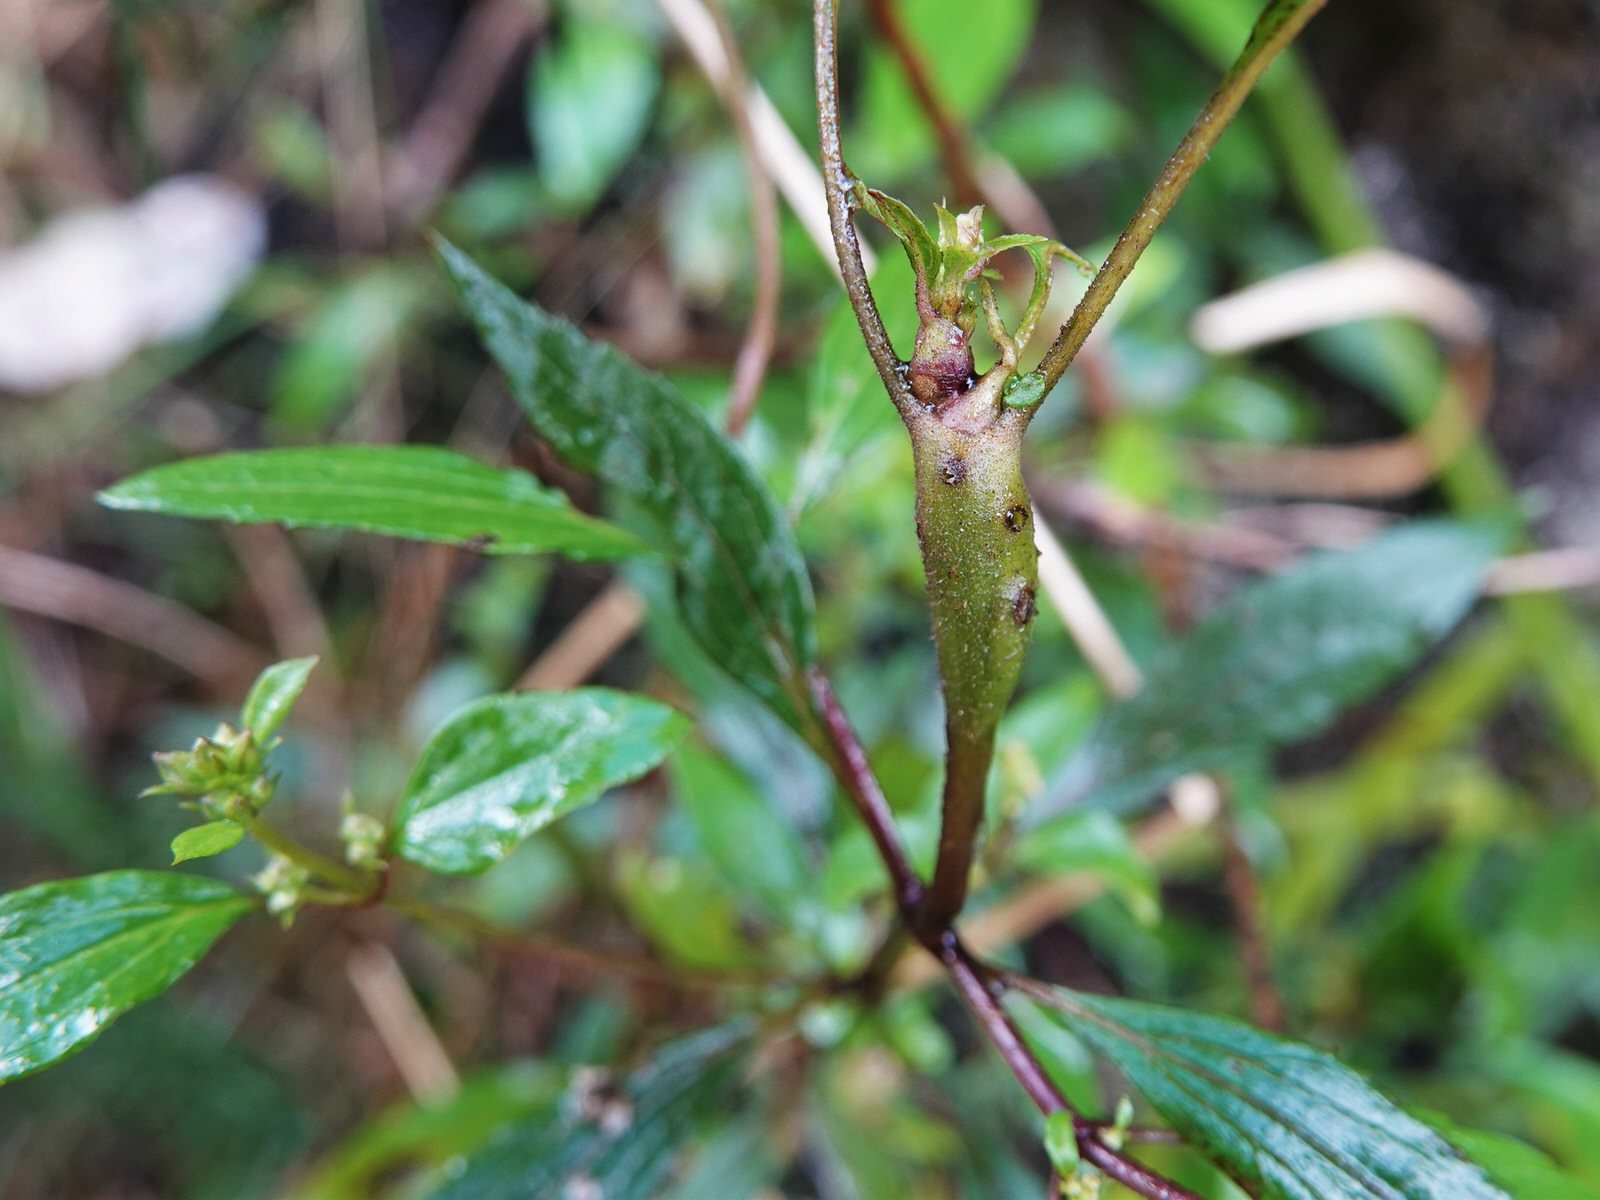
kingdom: Plantae
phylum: Tracheophyta
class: Magnoliopsida
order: Asterales
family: Asteraceae
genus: Ageratina
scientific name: Ageratina riparia
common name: Creeping croftonweed
